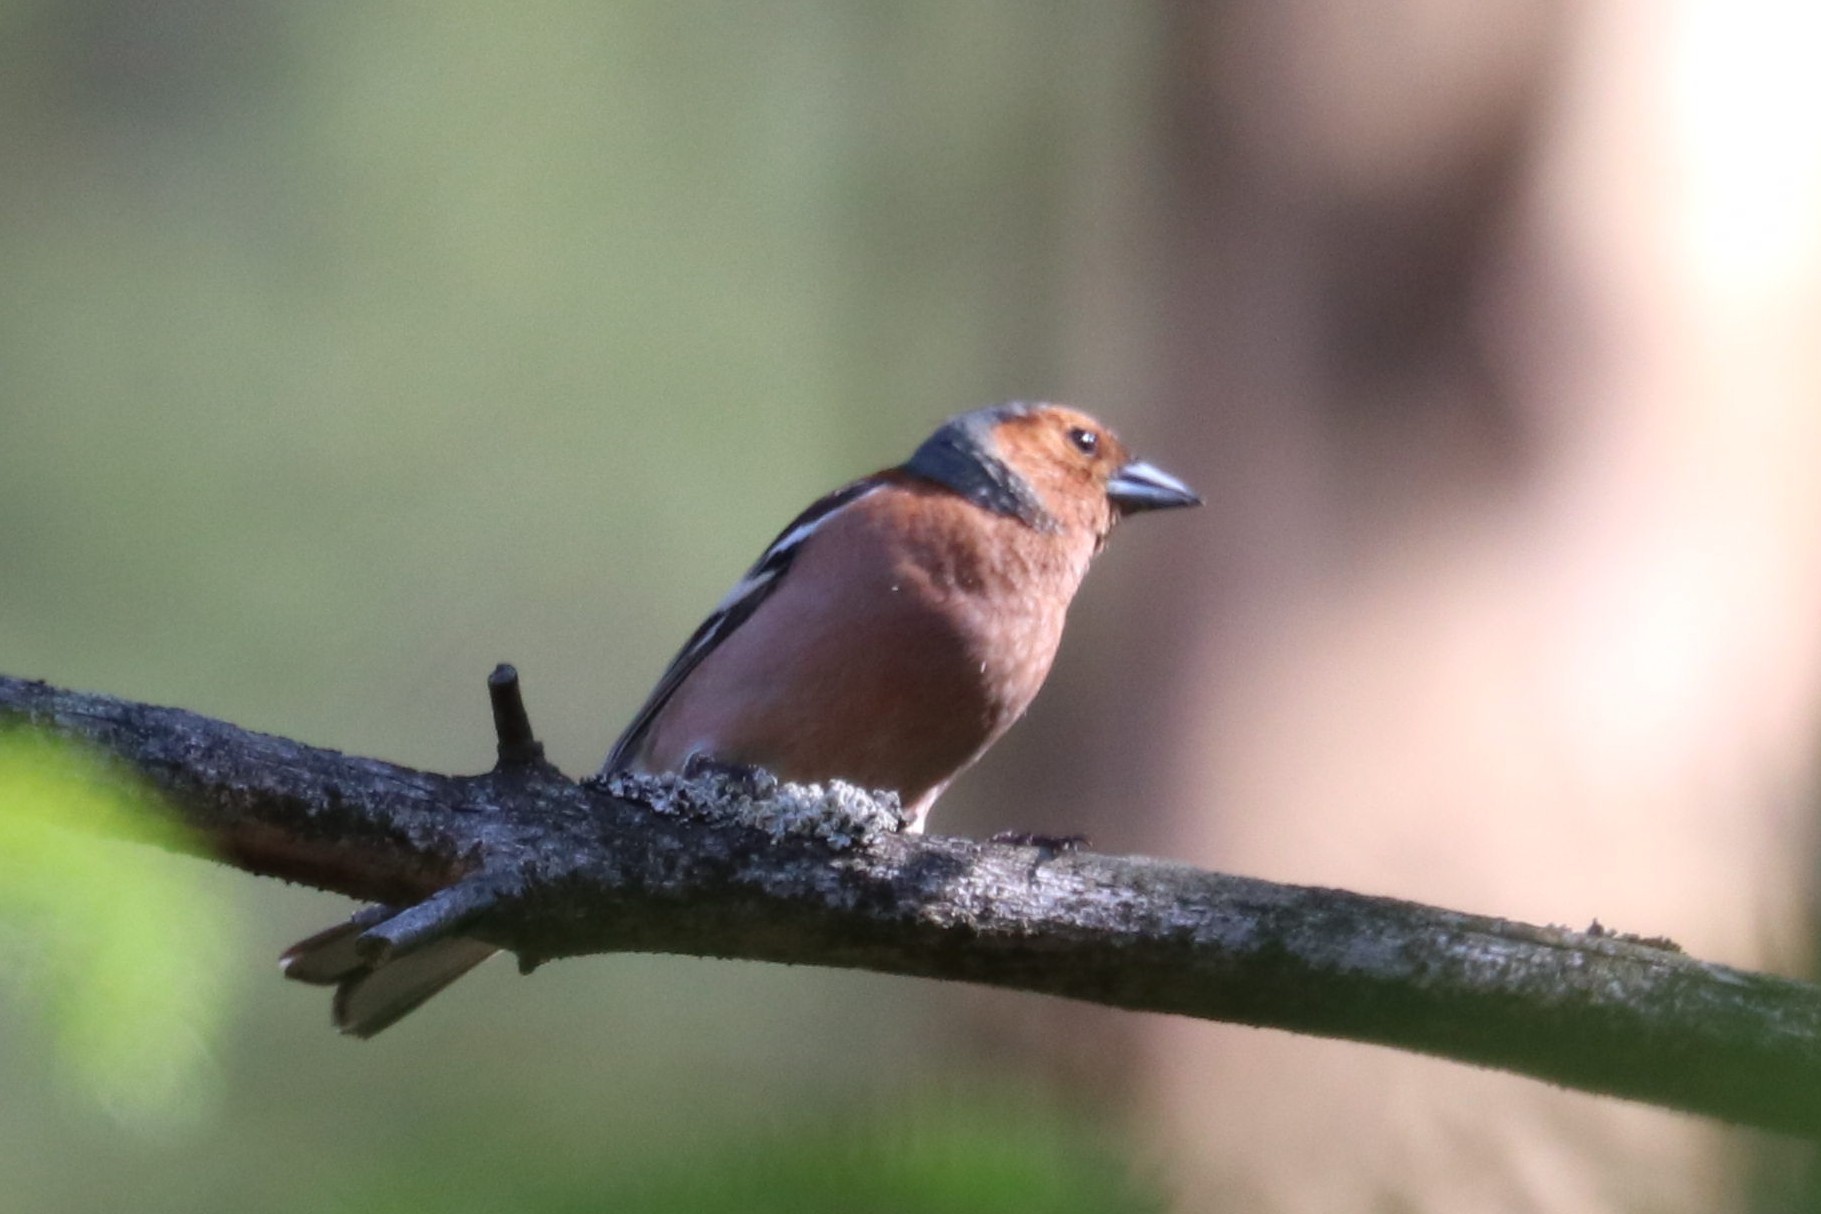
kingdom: Animalia
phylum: Chordata
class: Aves
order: Passeriformes
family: Fringillidae
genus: Fringilla
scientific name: Fringilla coelebs
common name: Common chaffinch
